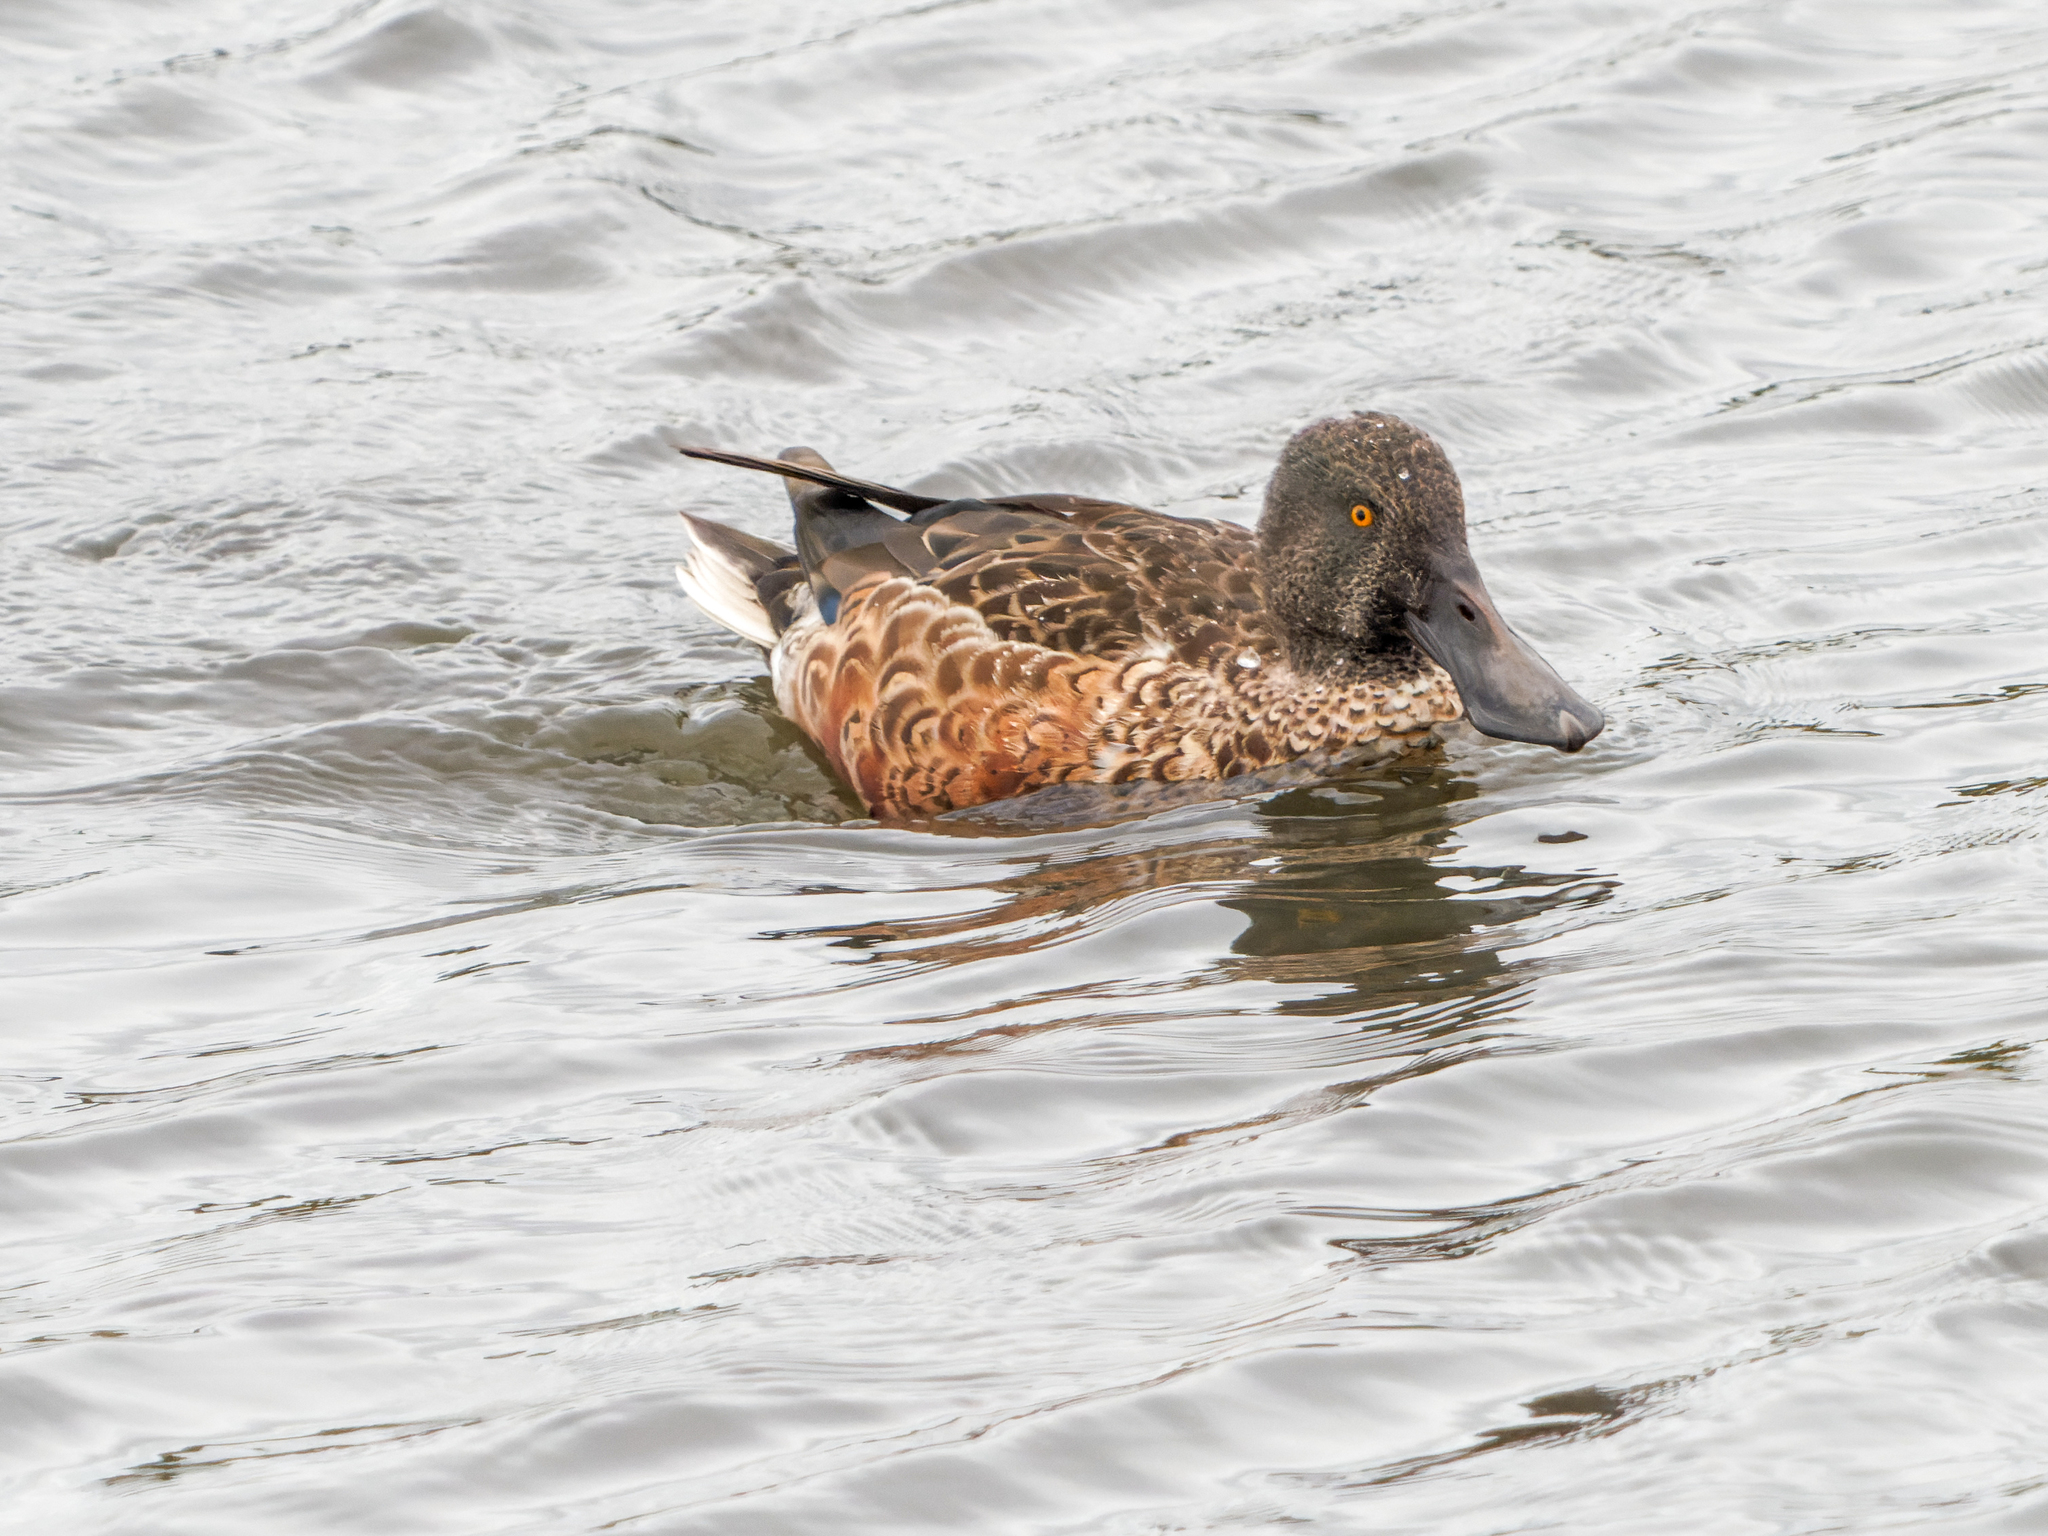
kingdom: Animalia
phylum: Chordata
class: Aves
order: Anseriformes
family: Anatidae
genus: Spatula
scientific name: Spatula clypeata
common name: Northern shoveler
